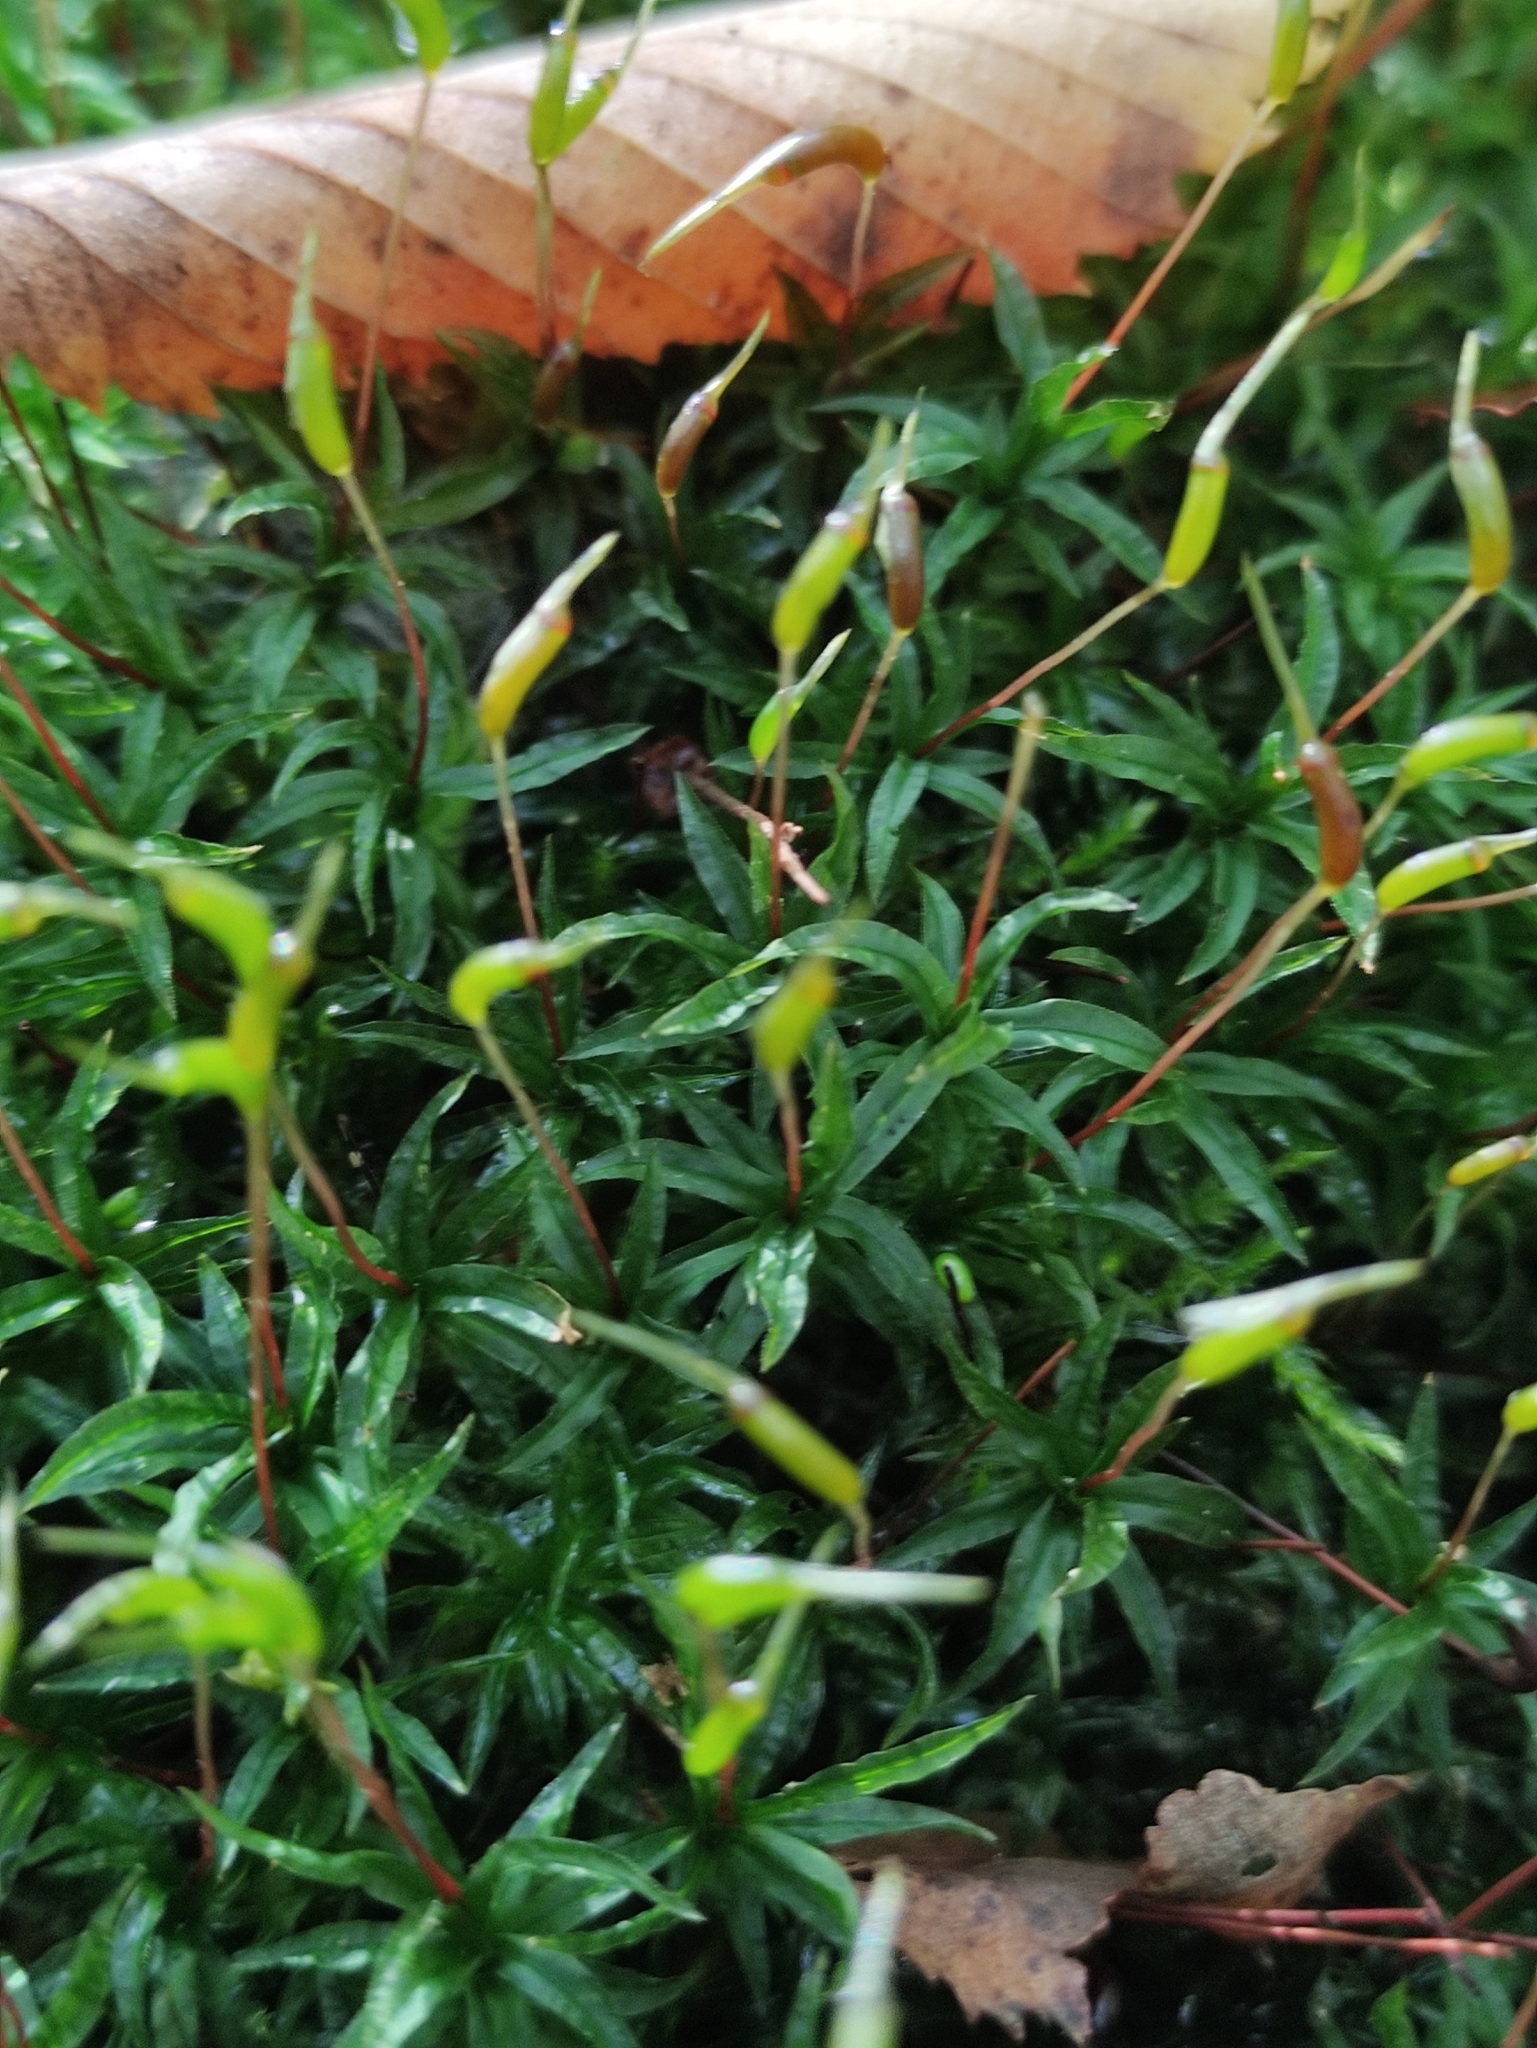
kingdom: Plantae
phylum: Bryophyta
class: Polytrichopsida
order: Polytrichales
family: Polytrichaceae
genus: Atrichum
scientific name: Atrichum undulatum
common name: Common smoothcap
